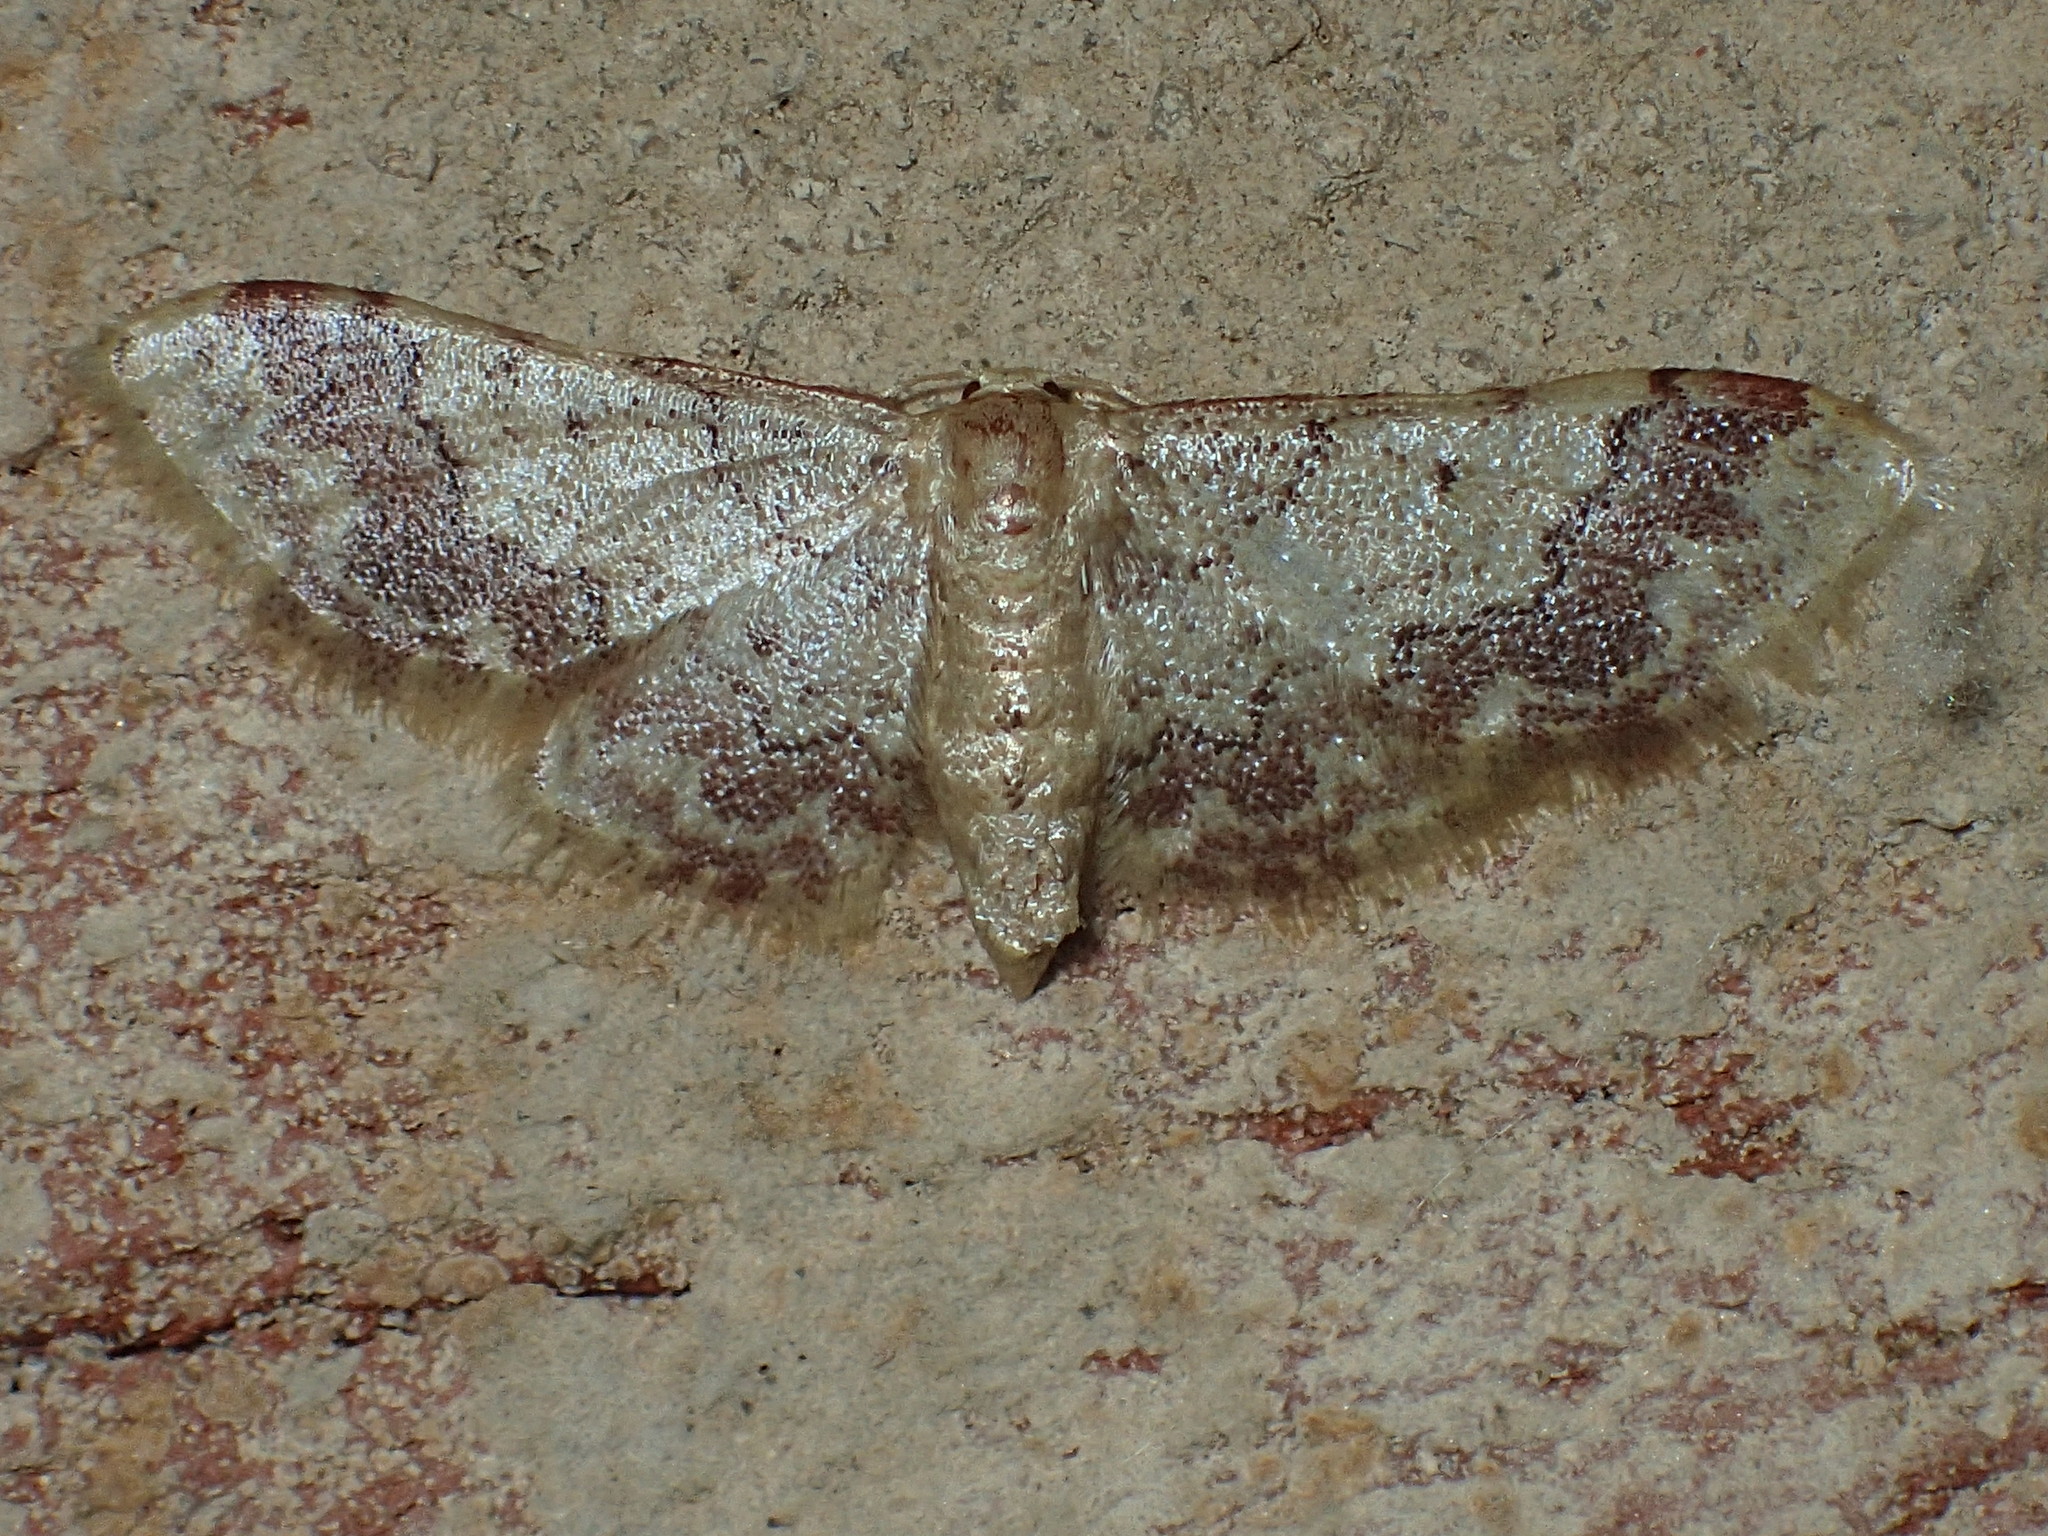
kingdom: Animalia
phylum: Arthropoda
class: Insecta
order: Lepidoptera
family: Geometridae
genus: Idaea
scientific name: Idaea furciferata
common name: Notch-winged wave
